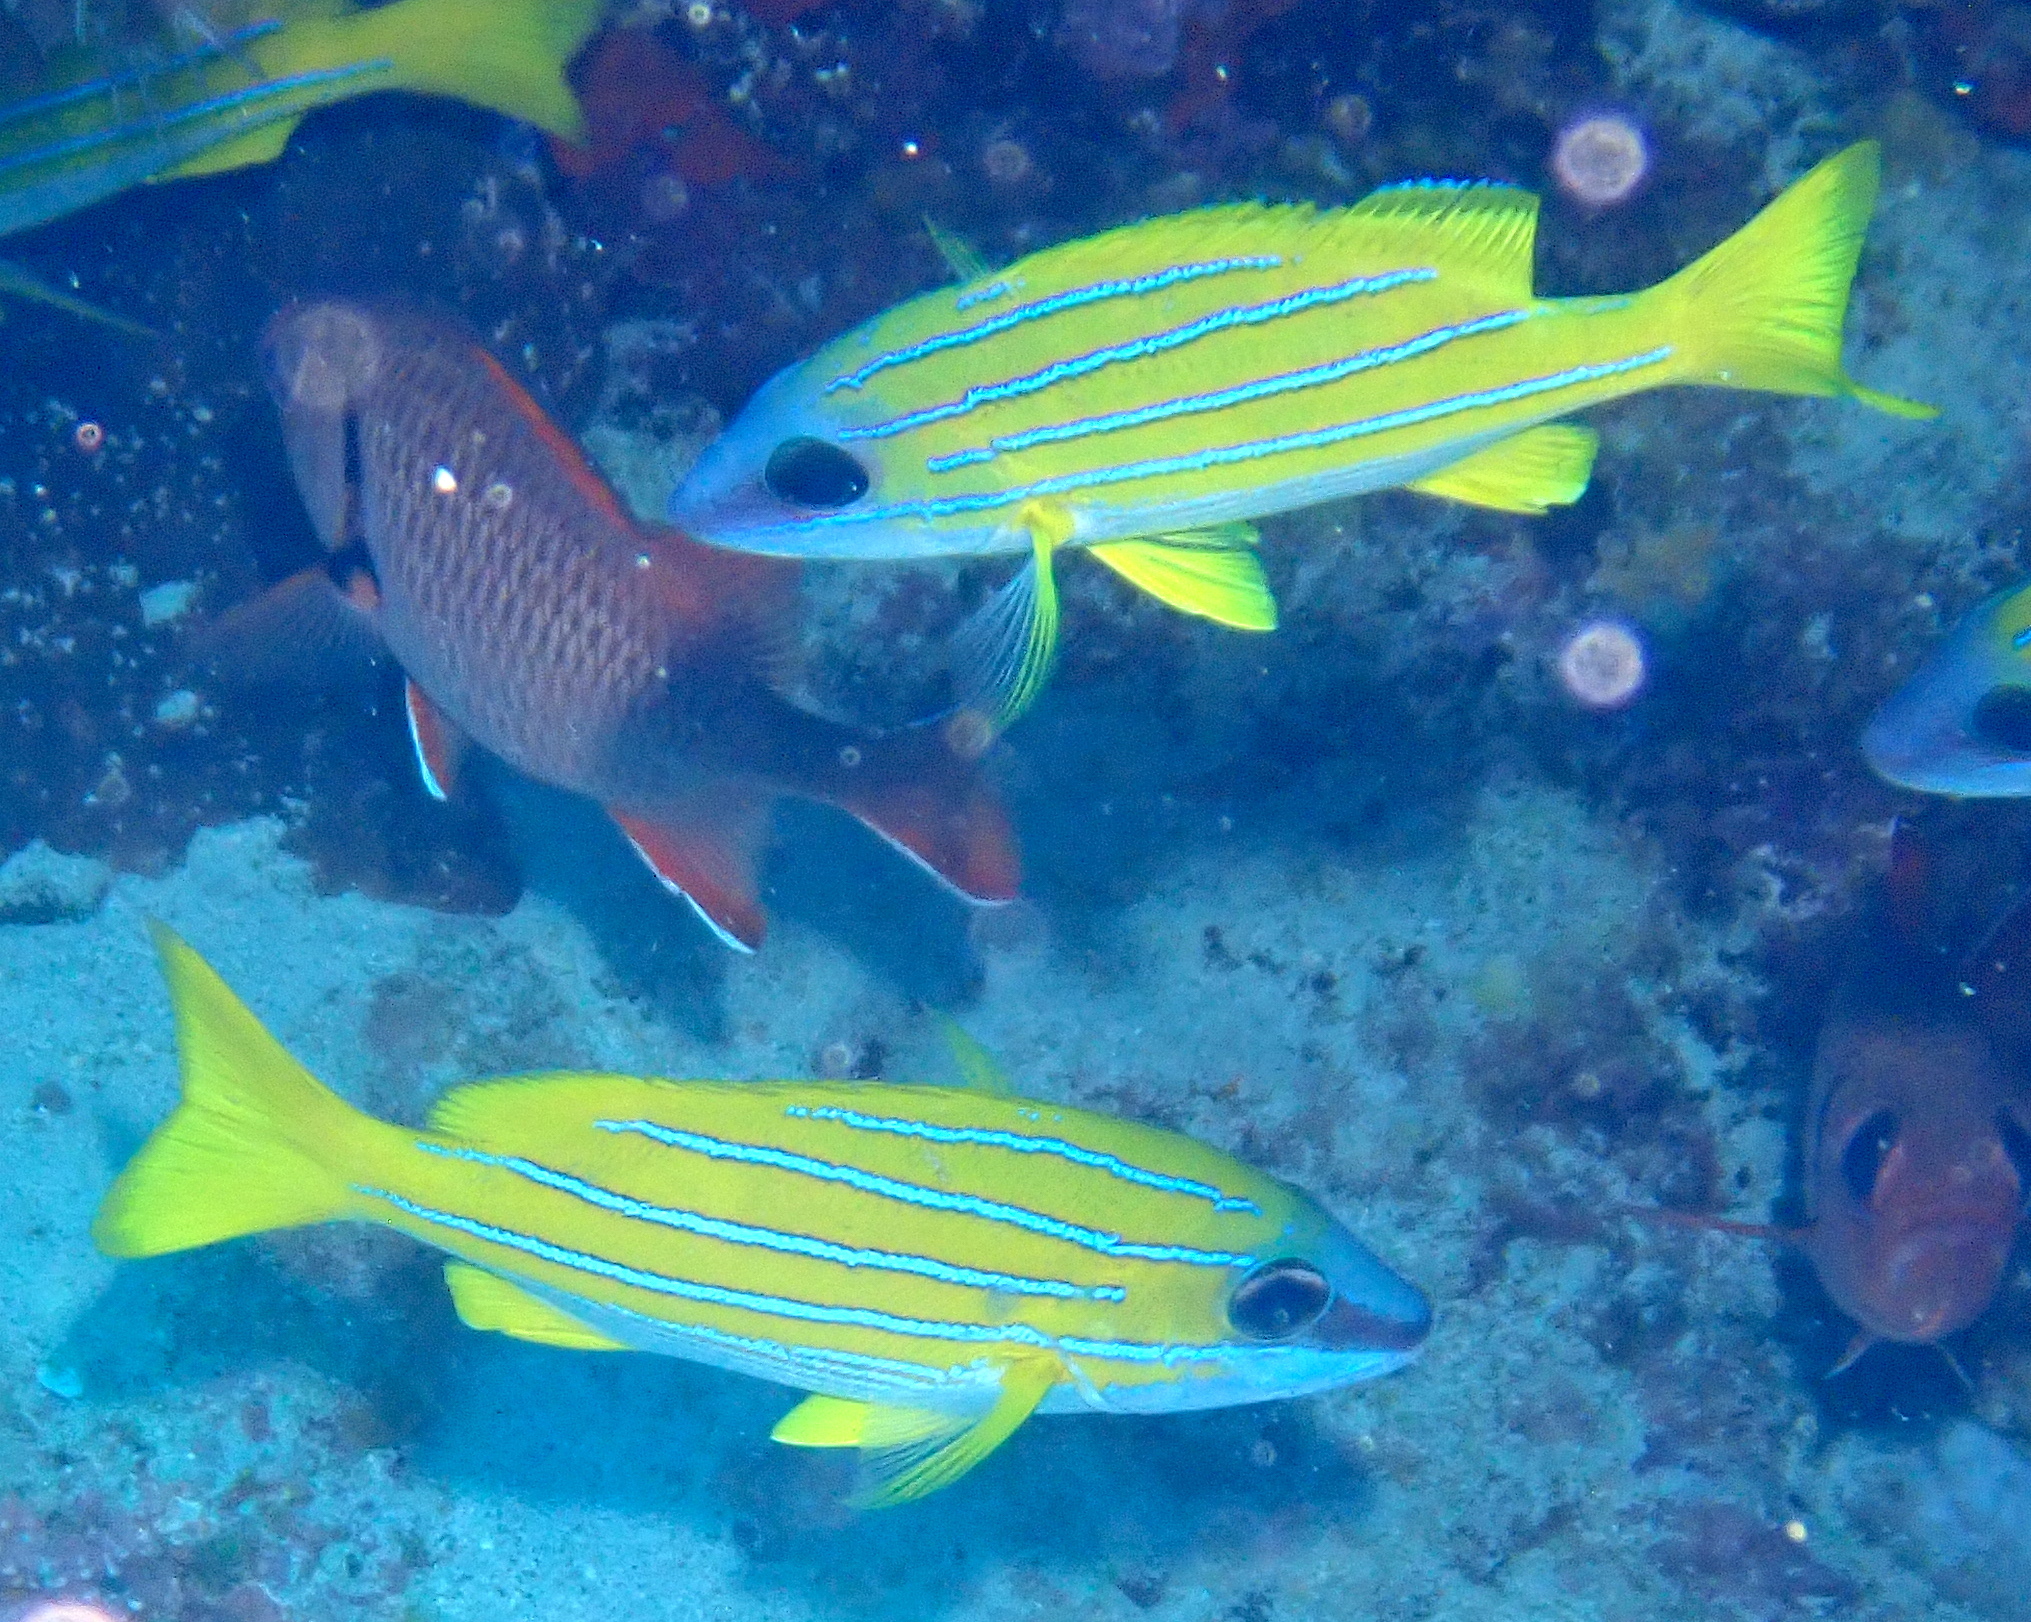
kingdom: Animalia
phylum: Chordata
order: Perciformes
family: Lutjanidae
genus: Lutjanus
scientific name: Lutjanus kasmira
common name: Common bluestripe snapper
